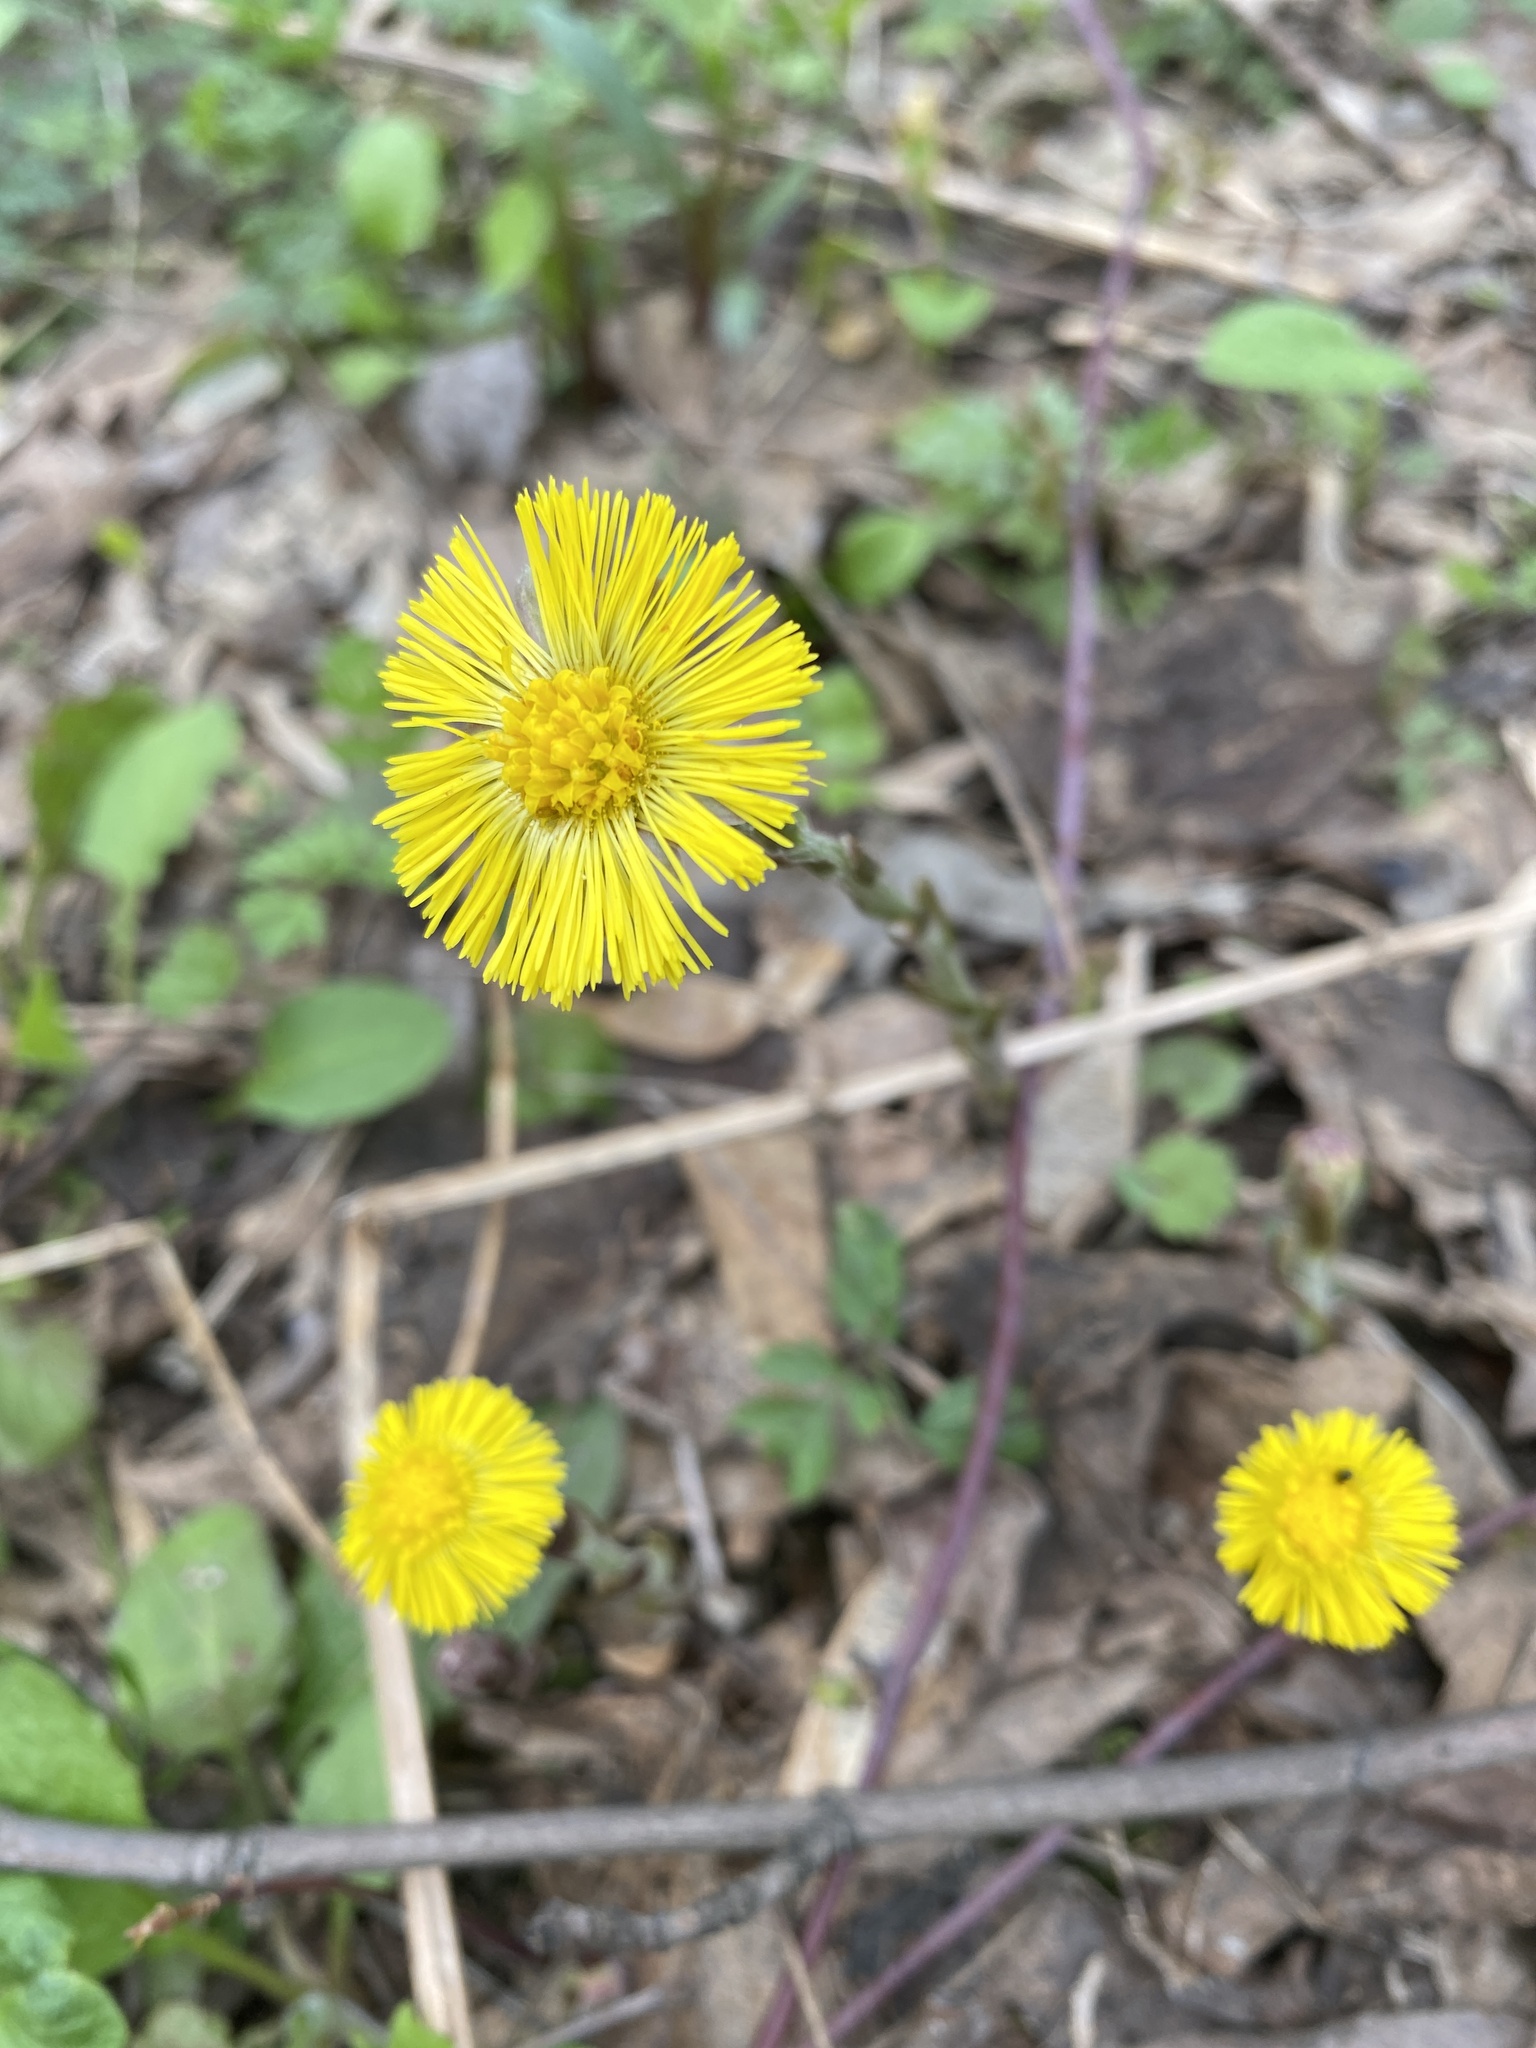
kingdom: Plantae
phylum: Tracheophyta
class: Magnoliopsida
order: Asterales
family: Asteraceae
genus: Tussilago
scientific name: Tussilago farfara
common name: Coltsfoot
